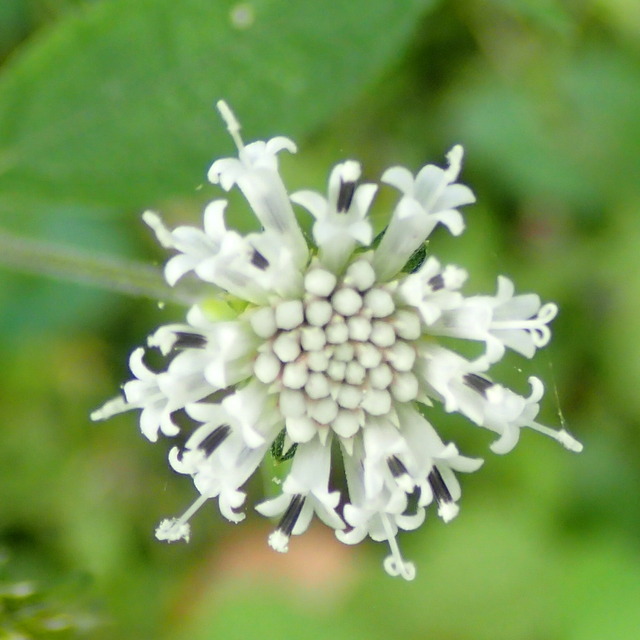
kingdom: Plantae
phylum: Tracheophyta
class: Magnoliopsida
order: Asterales
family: Asteraceae
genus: Melanthera
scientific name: Melanthera nivea
